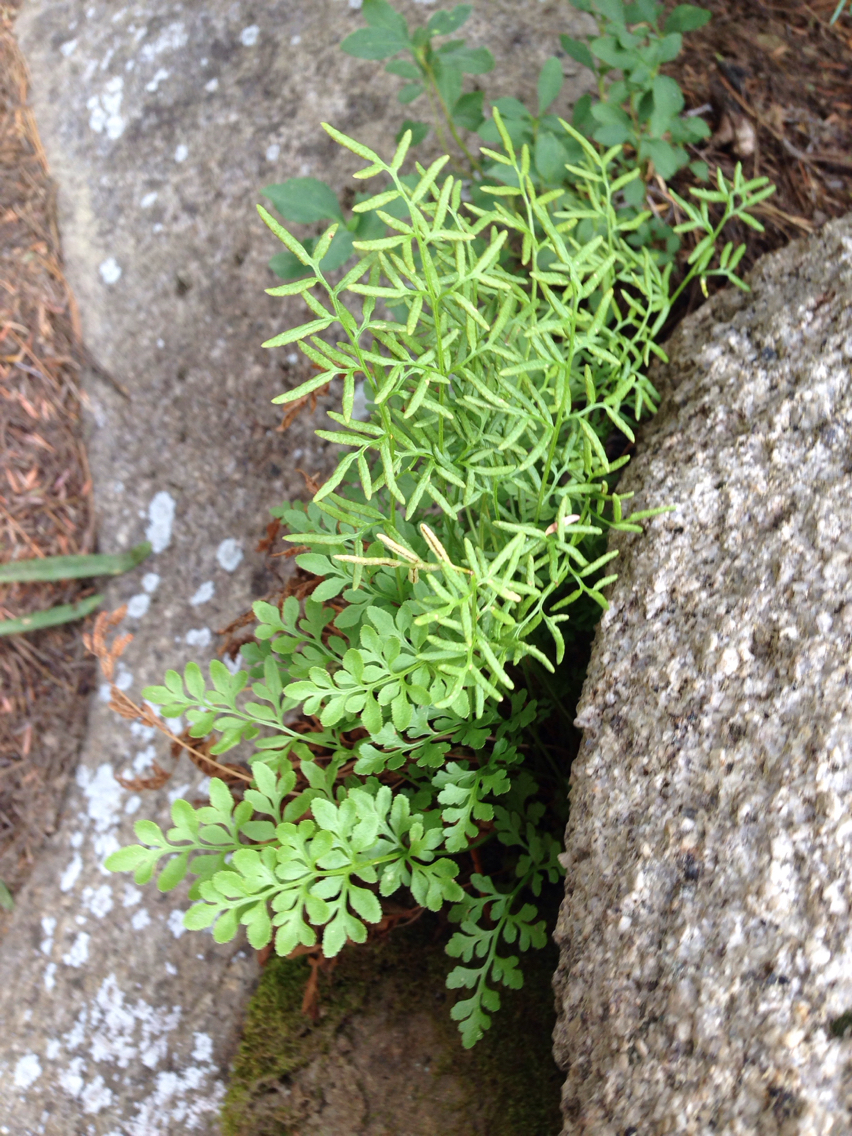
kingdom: Plantae
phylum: Tracheophyta
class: Polypodiopsida
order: Polypodiales
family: Pteridaceae
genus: Cryptogramma
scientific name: Cryptogramma acrostichoides
